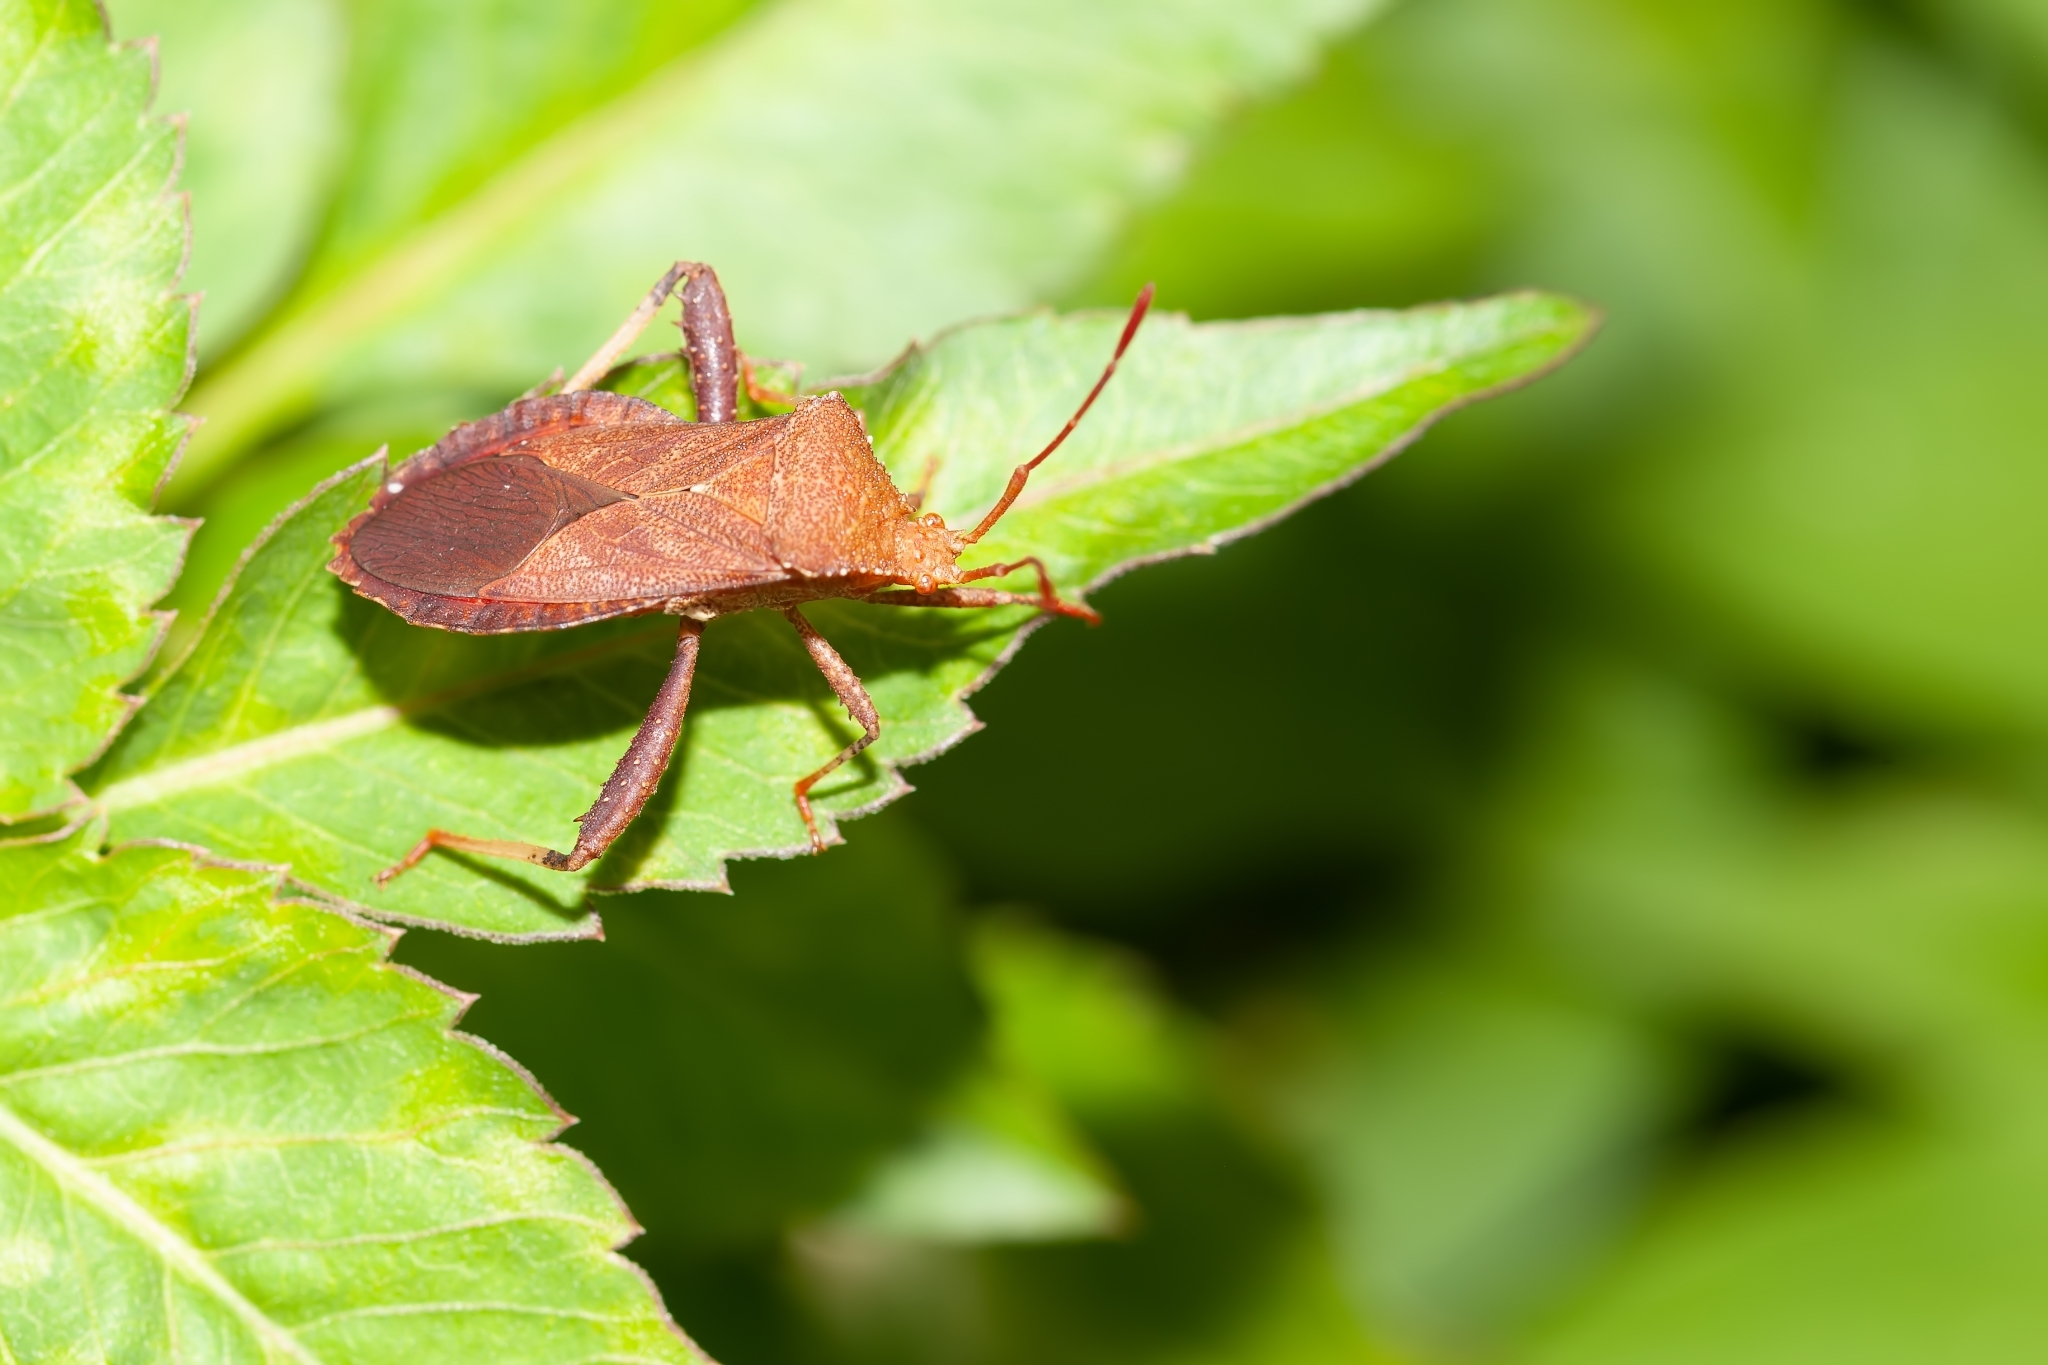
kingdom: Animalia
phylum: Arthropoda
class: Insecta
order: Hemiptera
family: Coreidae
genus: Euthochtha
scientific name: Euthochtha galeator
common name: Helmeted squash bug
